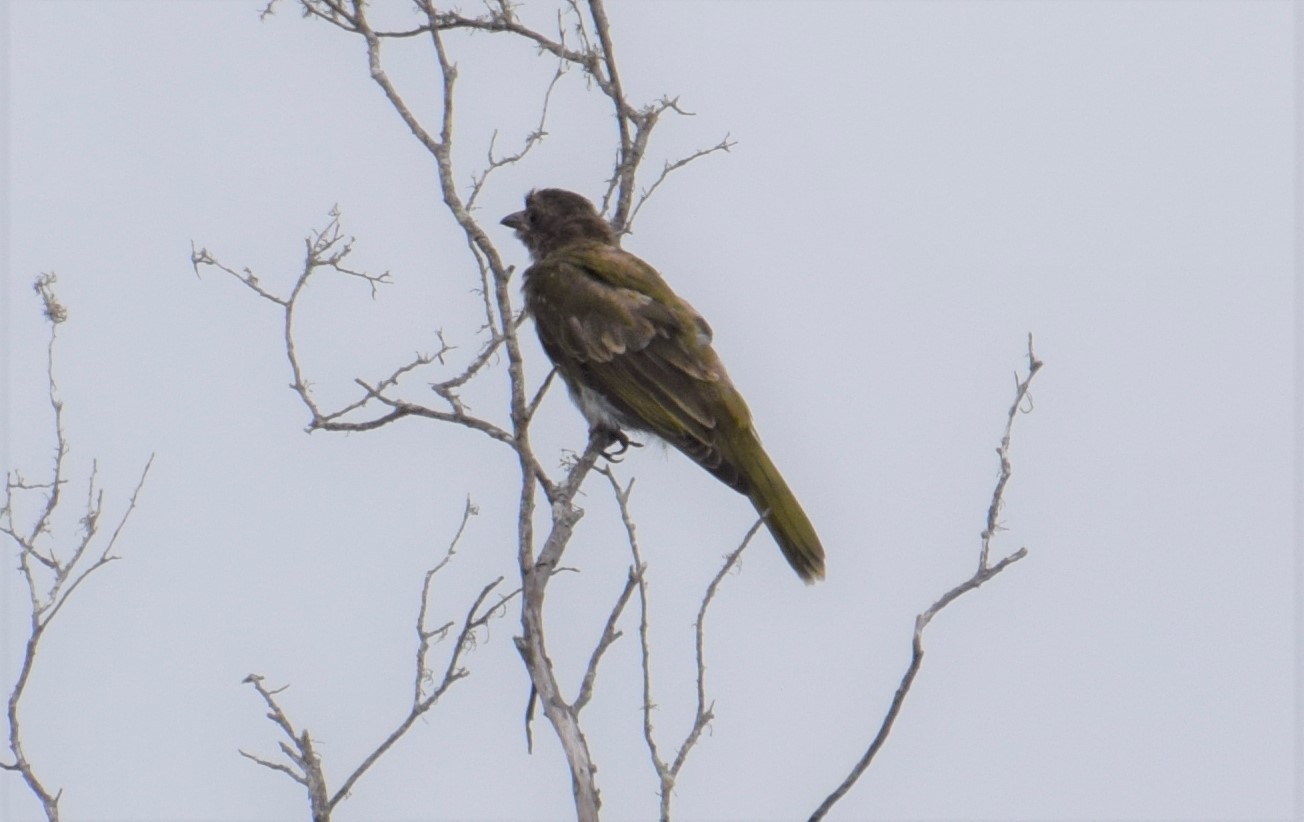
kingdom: Animalia
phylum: Chordata
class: Aves
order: Passeriformes
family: Oriolidae
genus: Sphecotheres
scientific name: Sphecotheres vieilloti
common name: Australasian figbird
